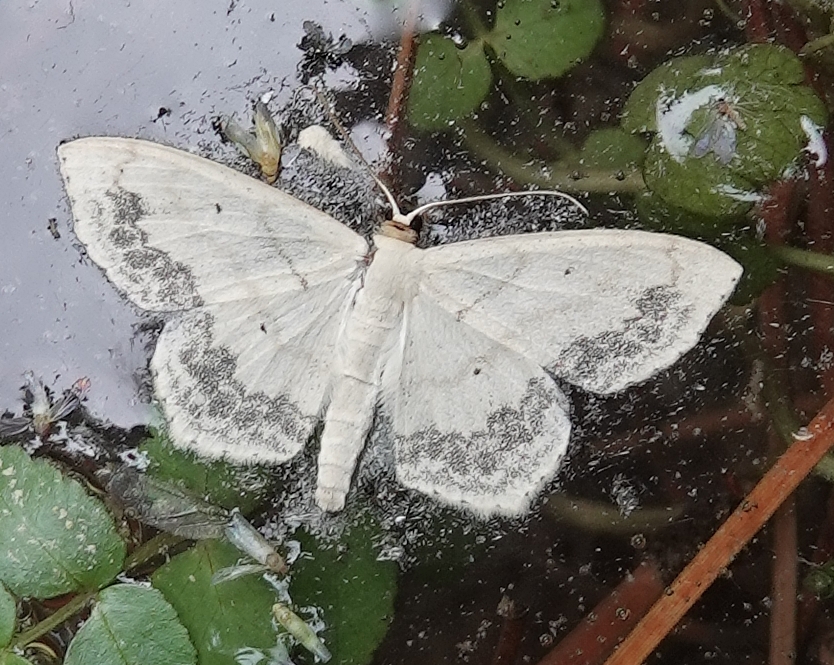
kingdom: Animalia
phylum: Arthropoda
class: Insecta
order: Lepidoptera
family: Geometridae
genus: Scopula
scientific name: Scopula limboundata
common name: Large lace border
